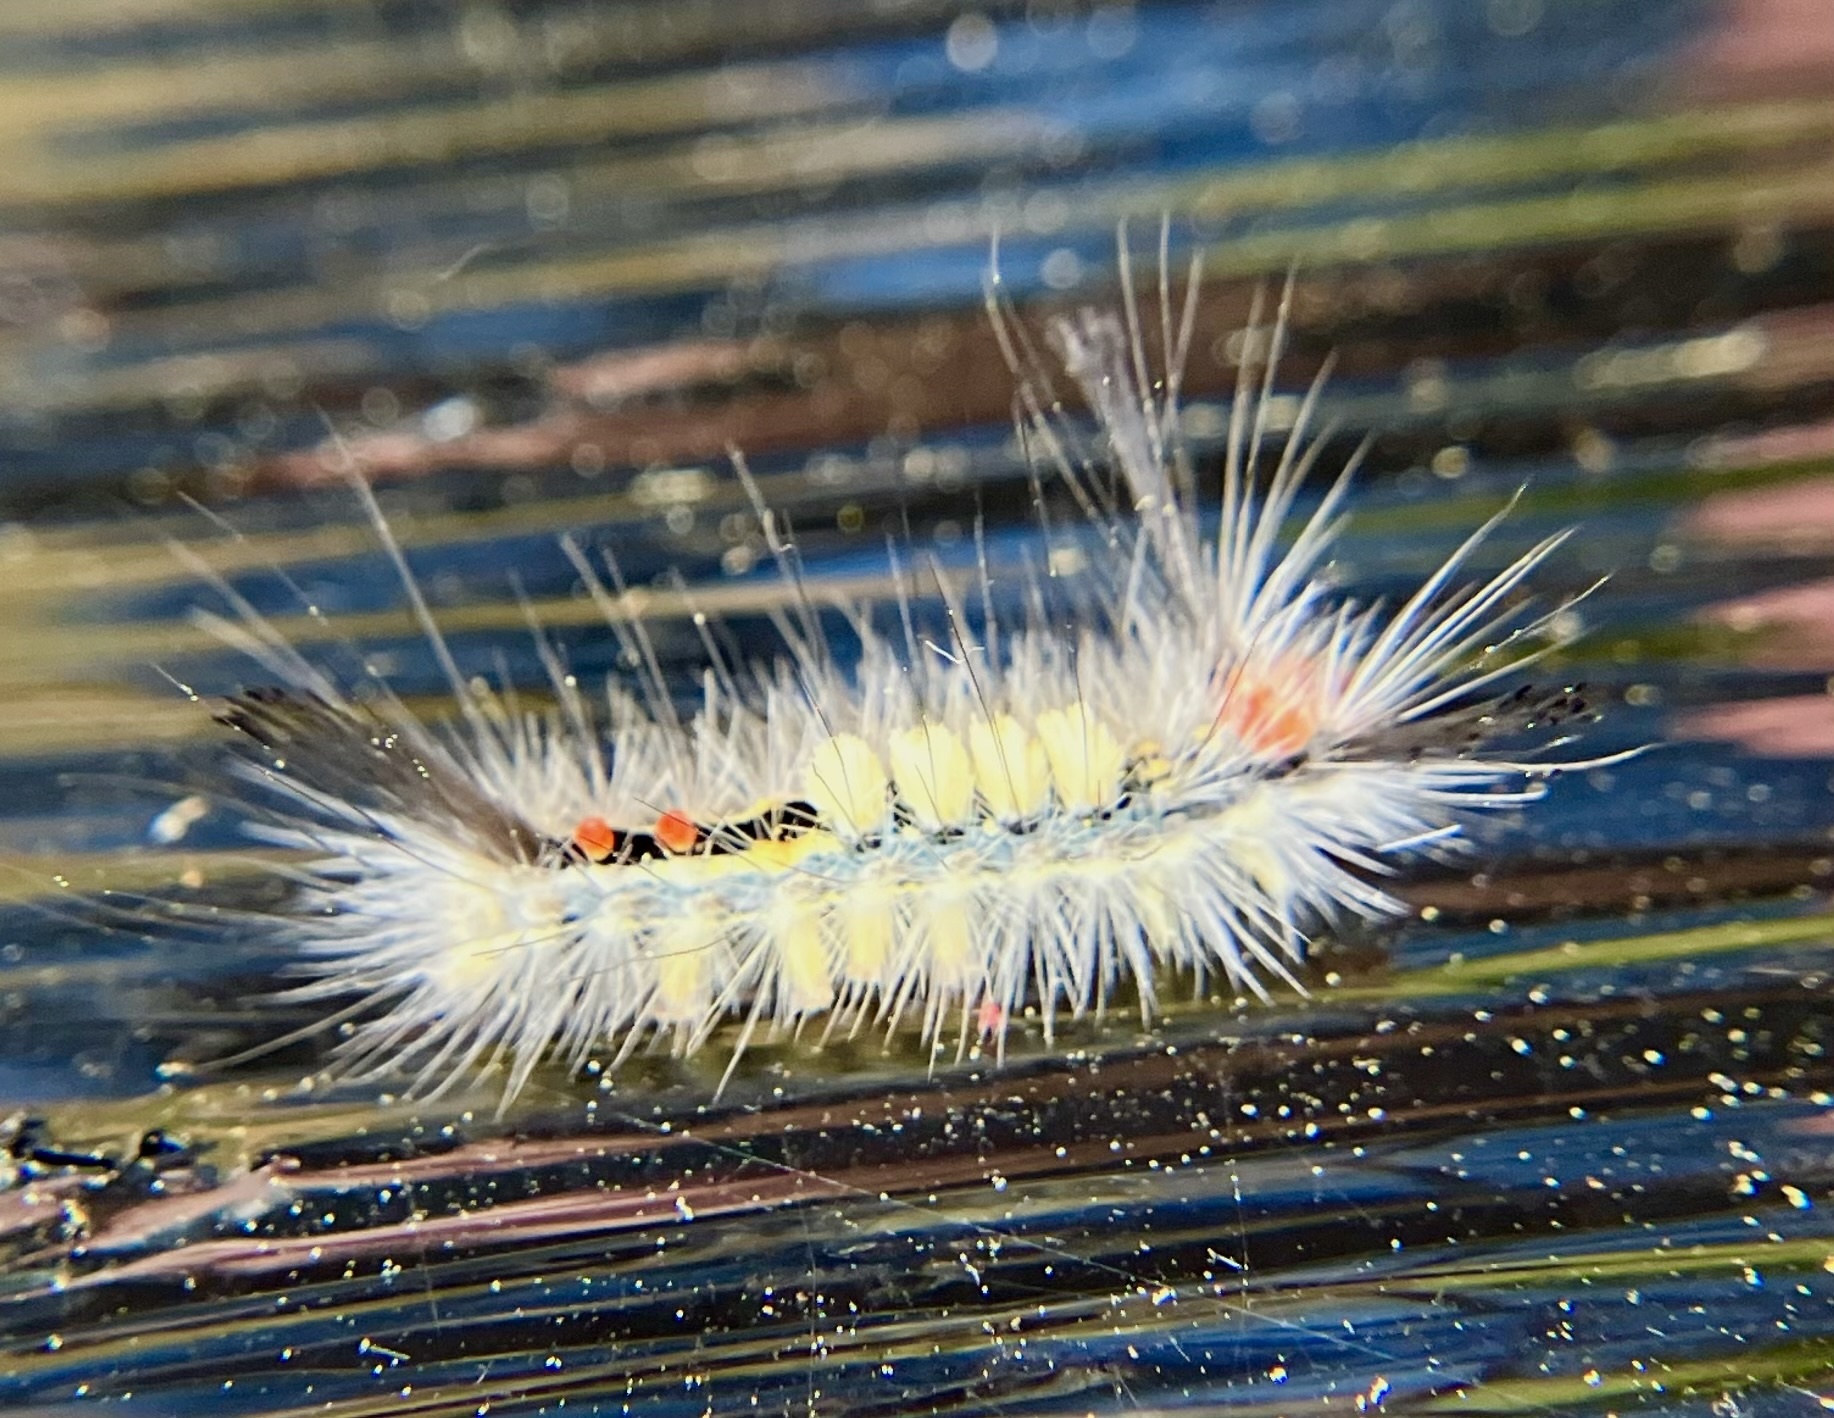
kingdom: Animalia
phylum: Arthropoda
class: Insecta
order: Lepidoptera
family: Erebidae
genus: Orgyia
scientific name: Orgyia leucostigma
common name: White-marked tussock moth
